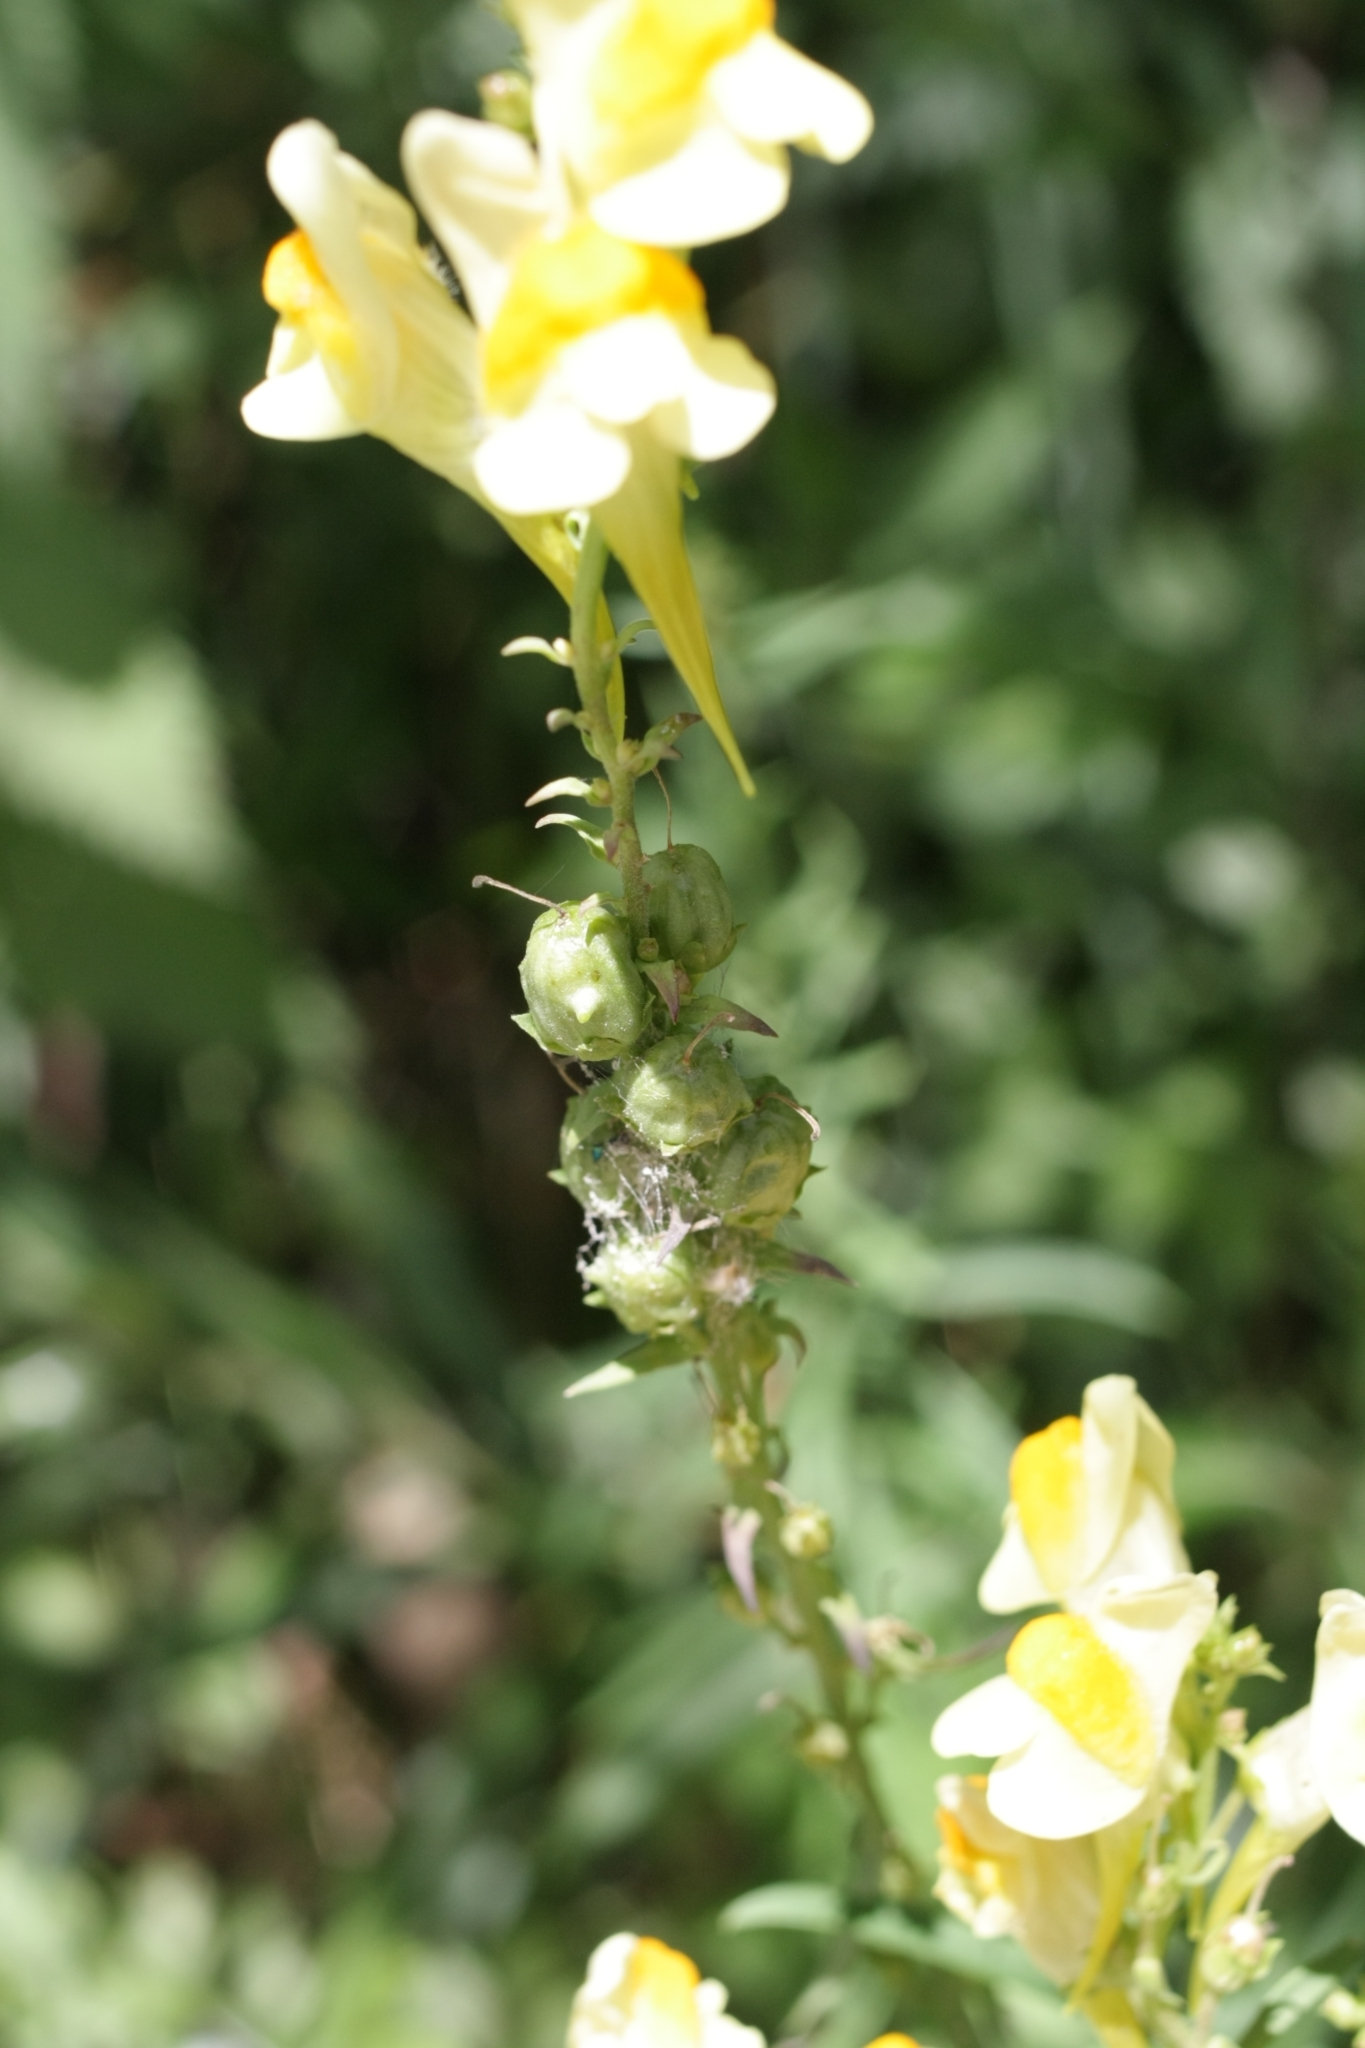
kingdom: Plantae
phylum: Tracheophyta
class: Magnoliopsida
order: Lamiales
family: Plantaginaceae
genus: Linaria
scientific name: Linaria vulgaris
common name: Butter and eggs
